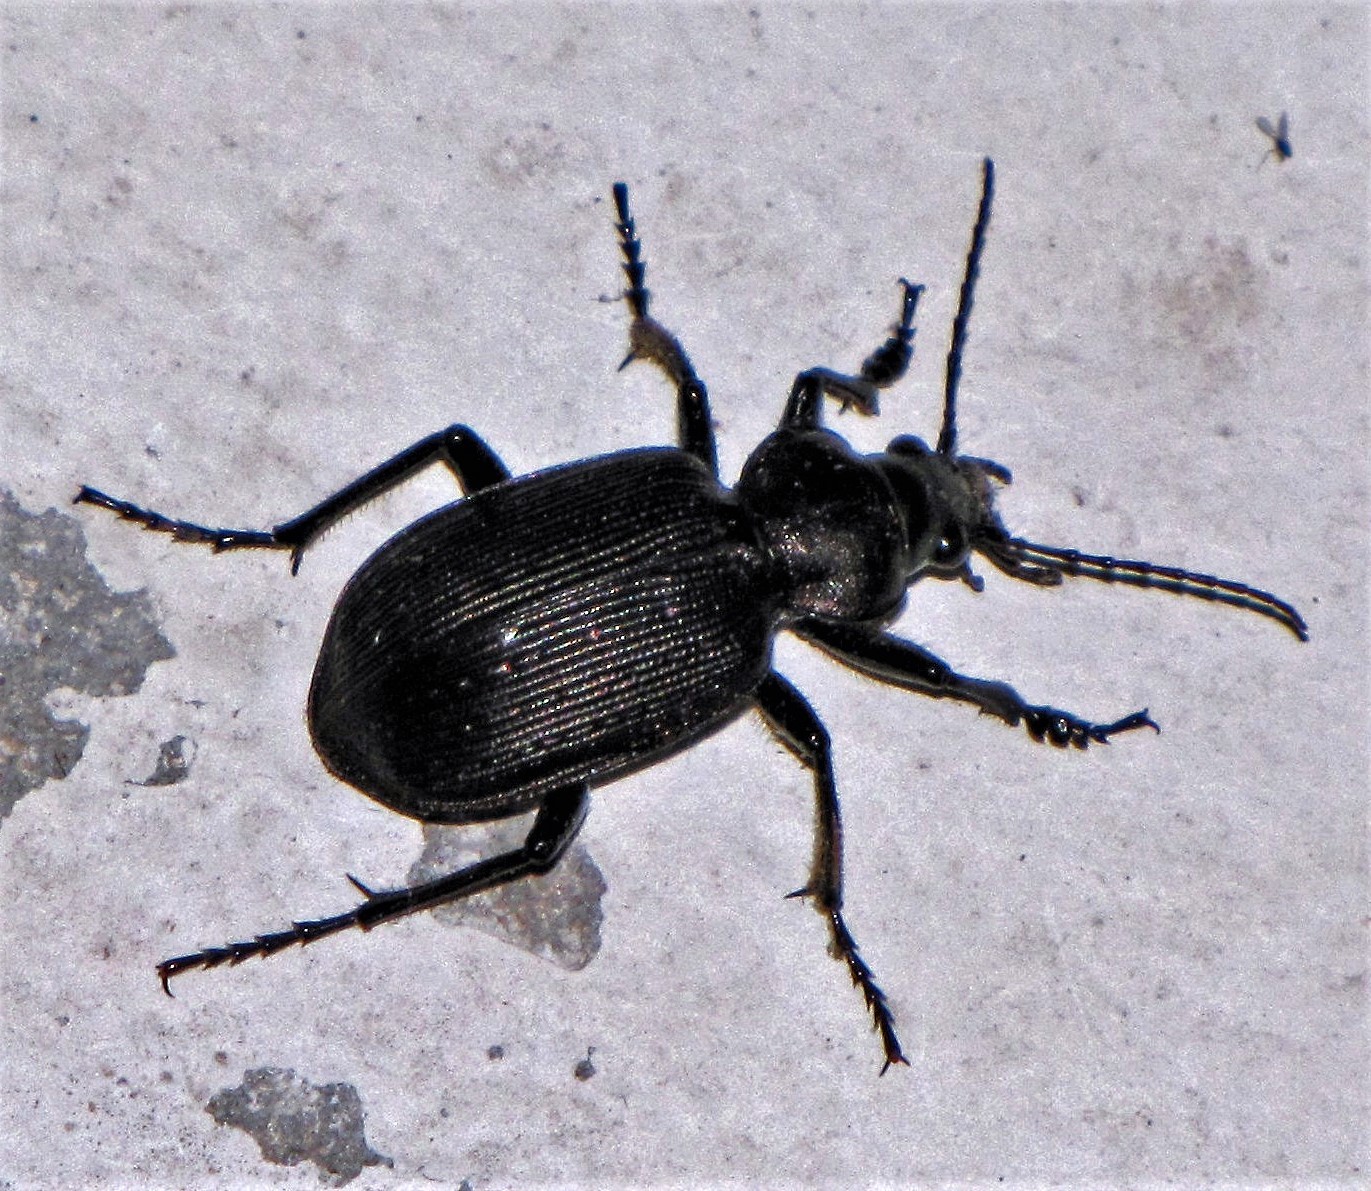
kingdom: Animalia
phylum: Arthropoda
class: Insecta
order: Coleoptera
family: Carabidae
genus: Calosoma
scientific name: Calosoma argentinense
